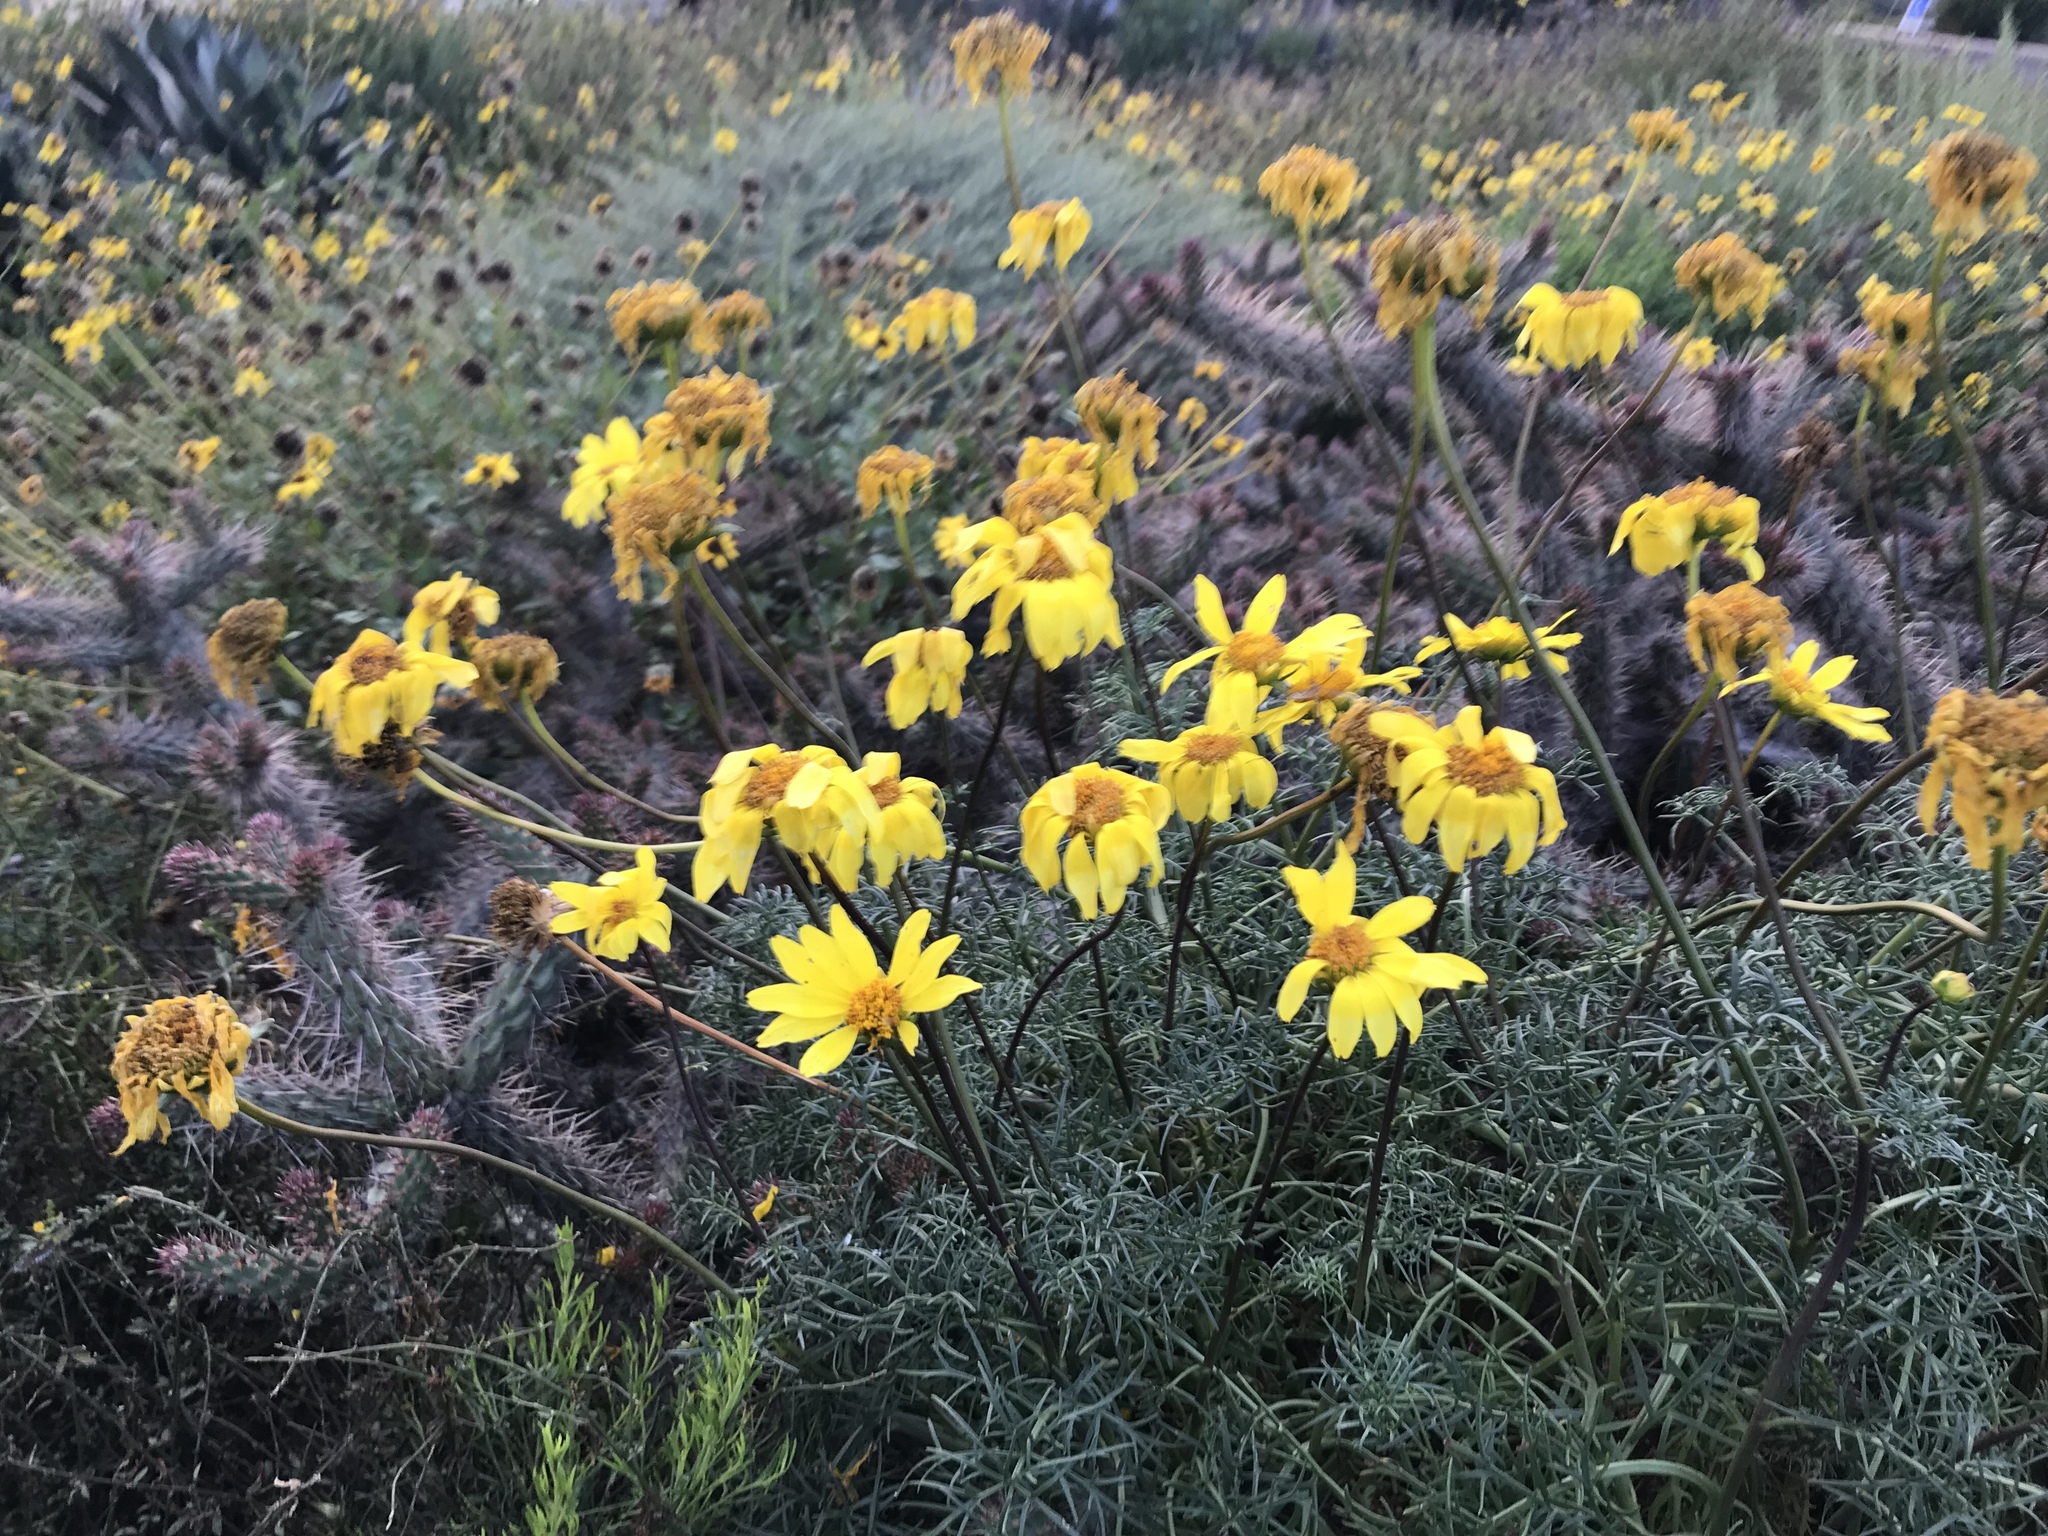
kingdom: Plantae
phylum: Tracheophyta
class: Magnoliopsida
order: Asterales
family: Asteraceae
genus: Coreopsis
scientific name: Coreopsis maritima
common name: Sea-dahlia
